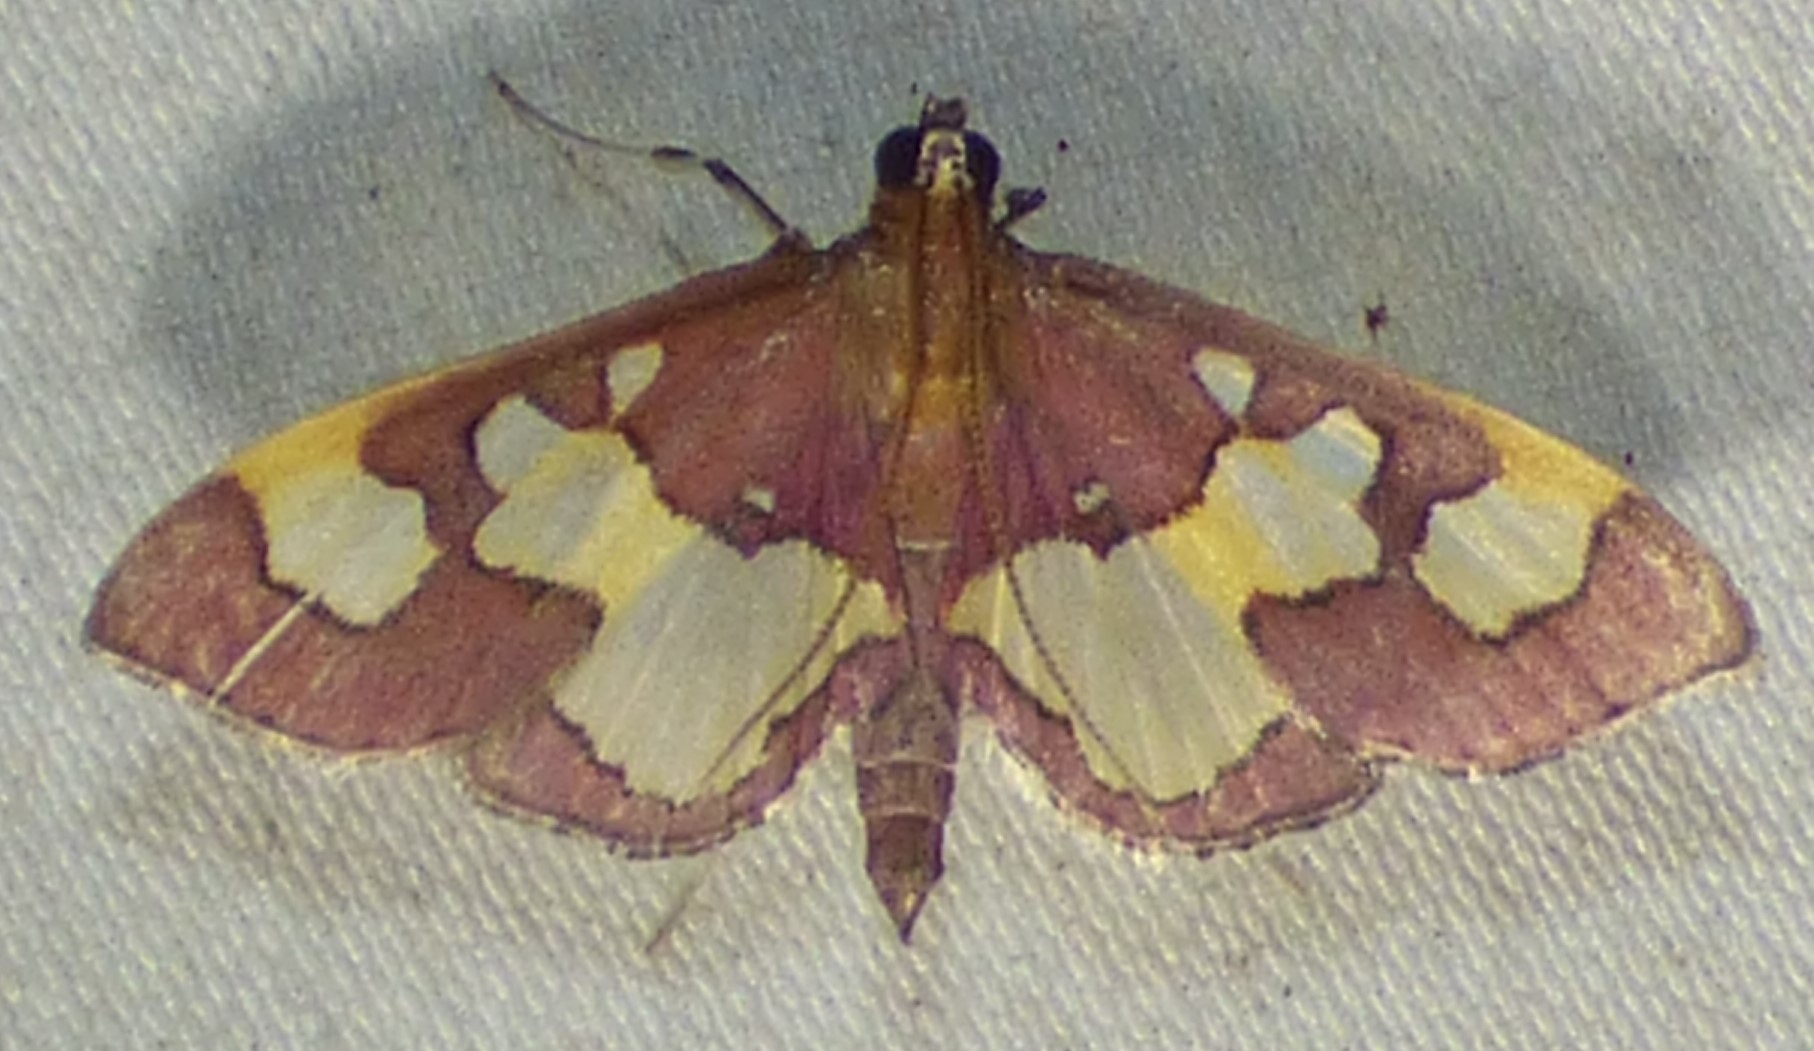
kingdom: Animalia
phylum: Arthropoda
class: Insecta
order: Lepidoptera
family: Crambidae
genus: Colomychus
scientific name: Colomychus talis
